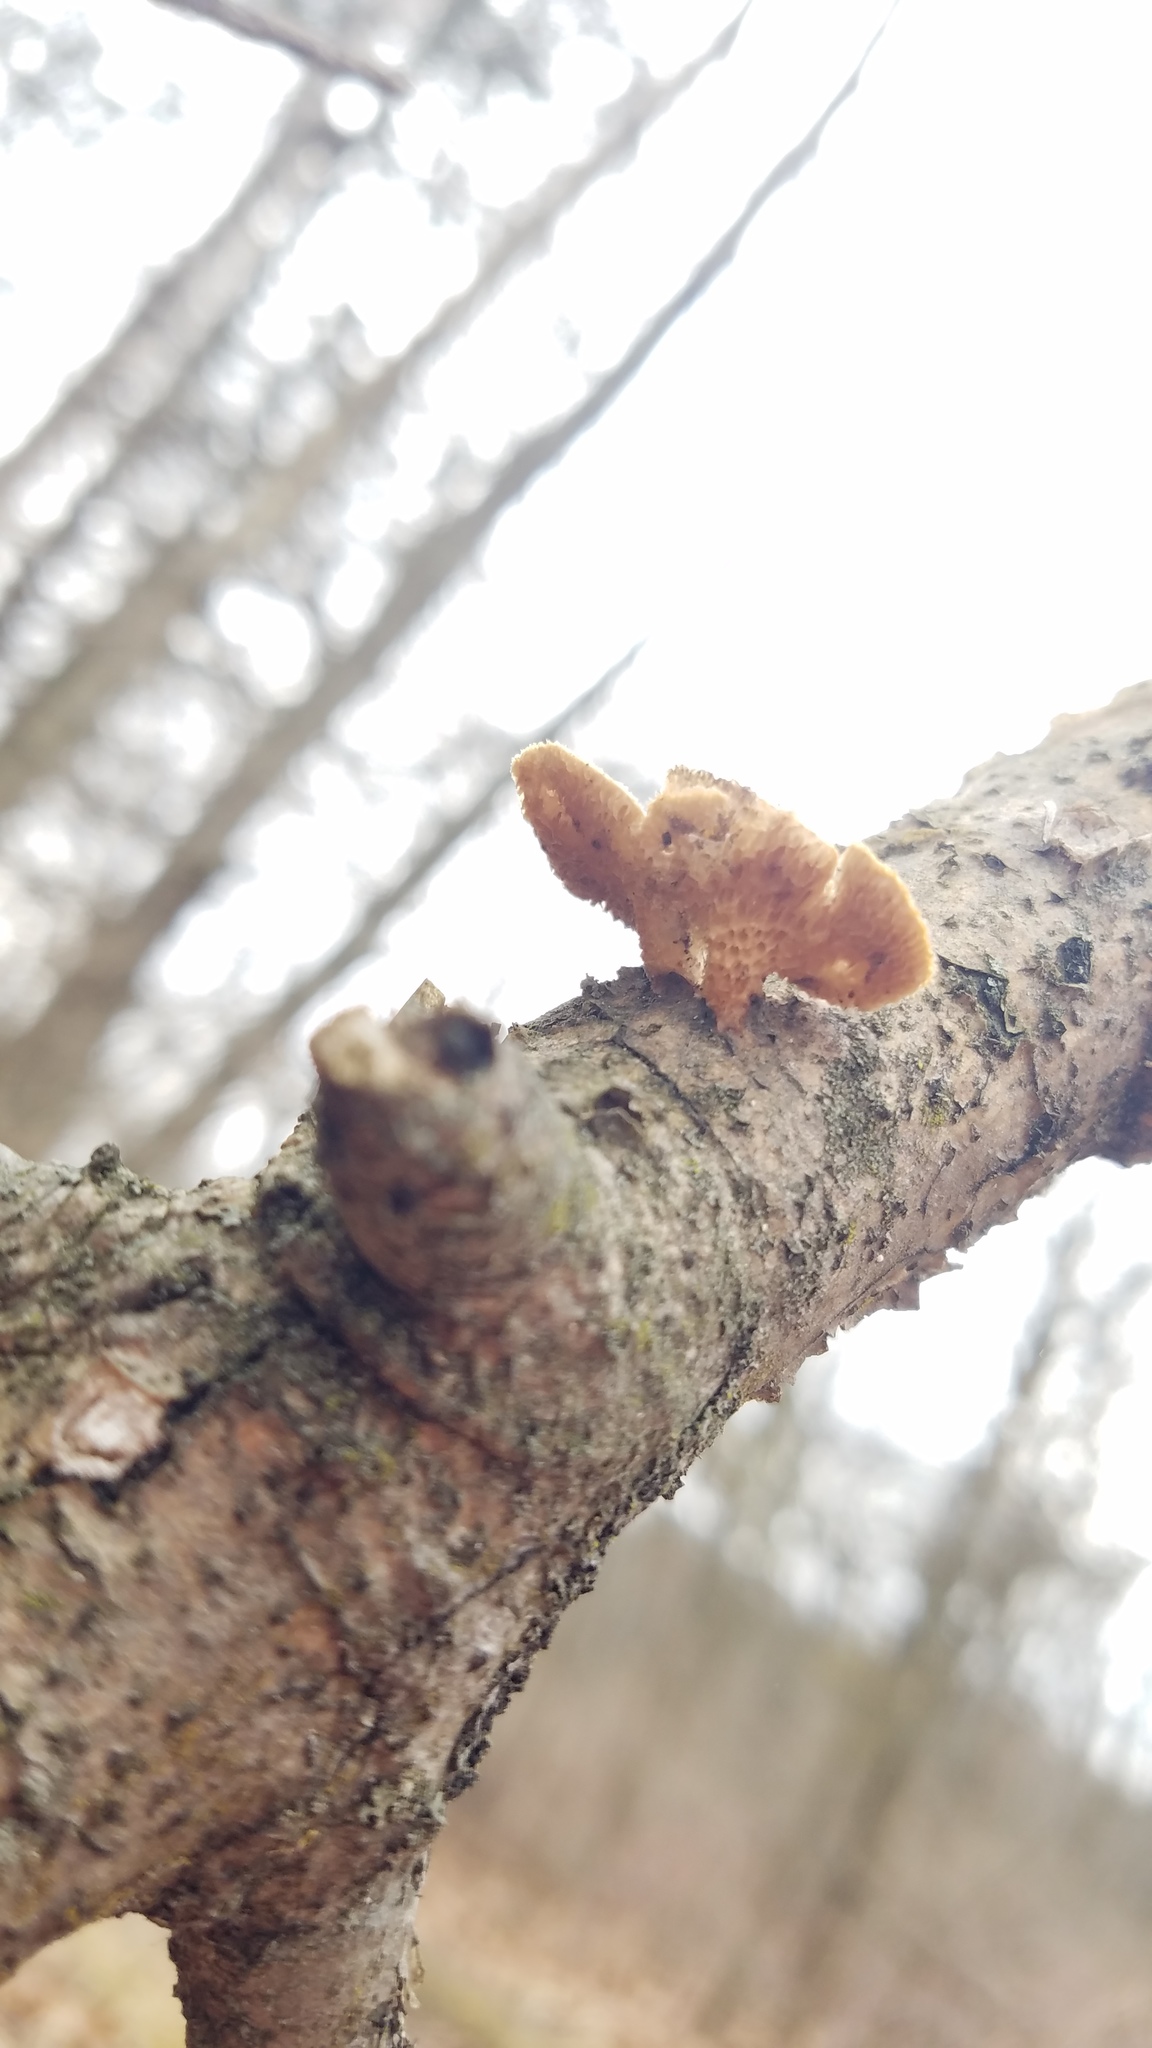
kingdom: Fungi
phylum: Basidiomycota
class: Agaricomycetes
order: Polyporales
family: Polyporaceae
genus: Neofavolus
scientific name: Neofavolus alveolaris
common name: Hexagonal-pored polypore
